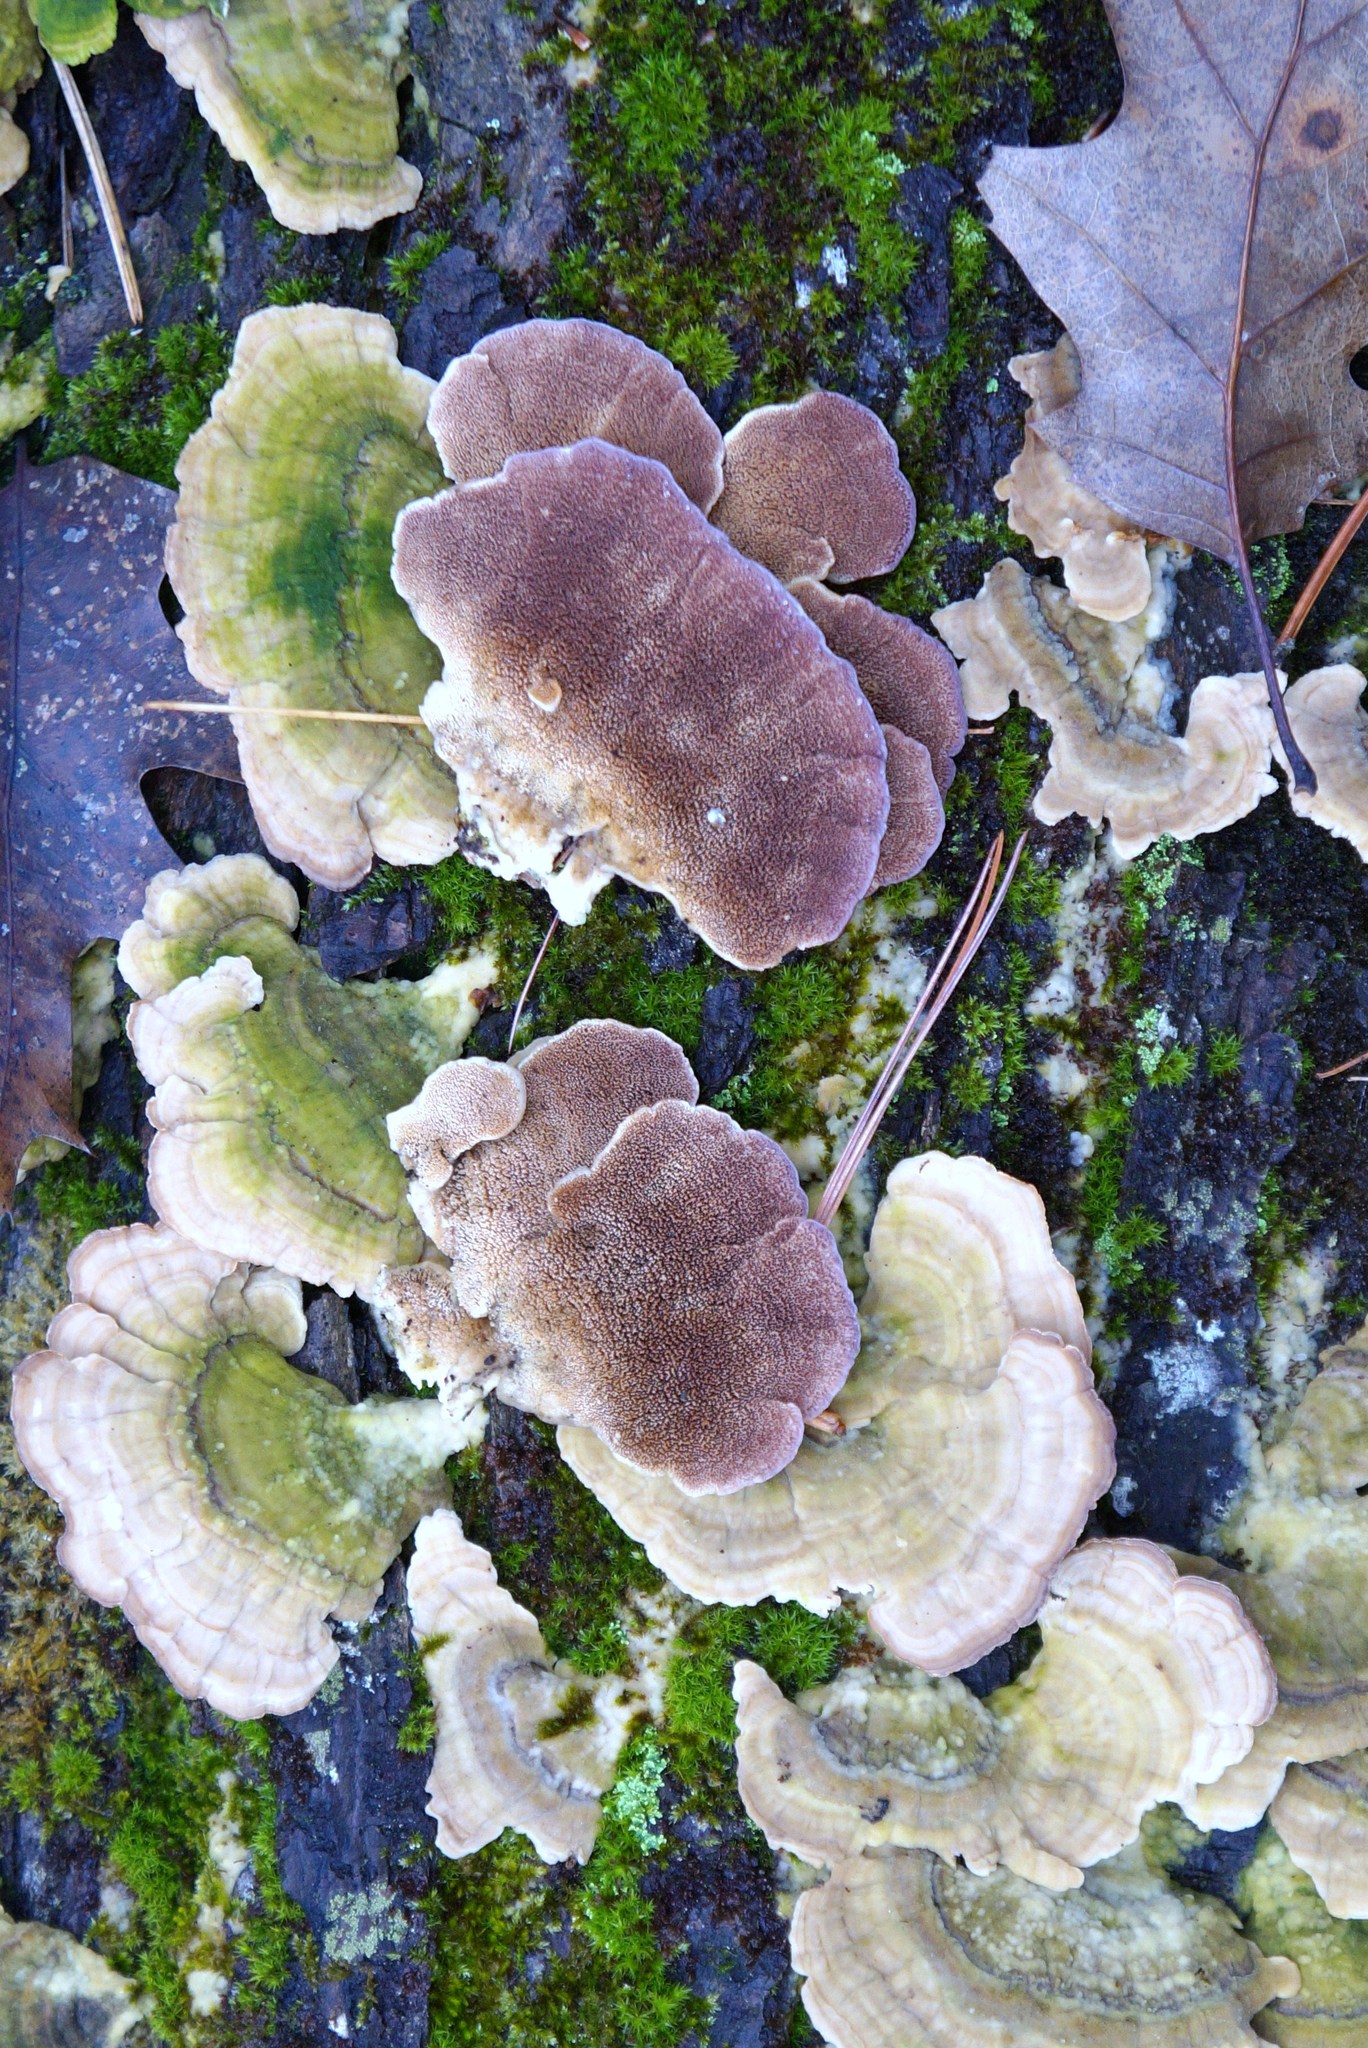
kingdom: Fungi
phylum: Basidiomycota
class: Agaricomycetes
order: Hymenochaetales
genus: Trichaptum
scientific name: Trichaptum biforme
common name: Violet-toothed polypore
